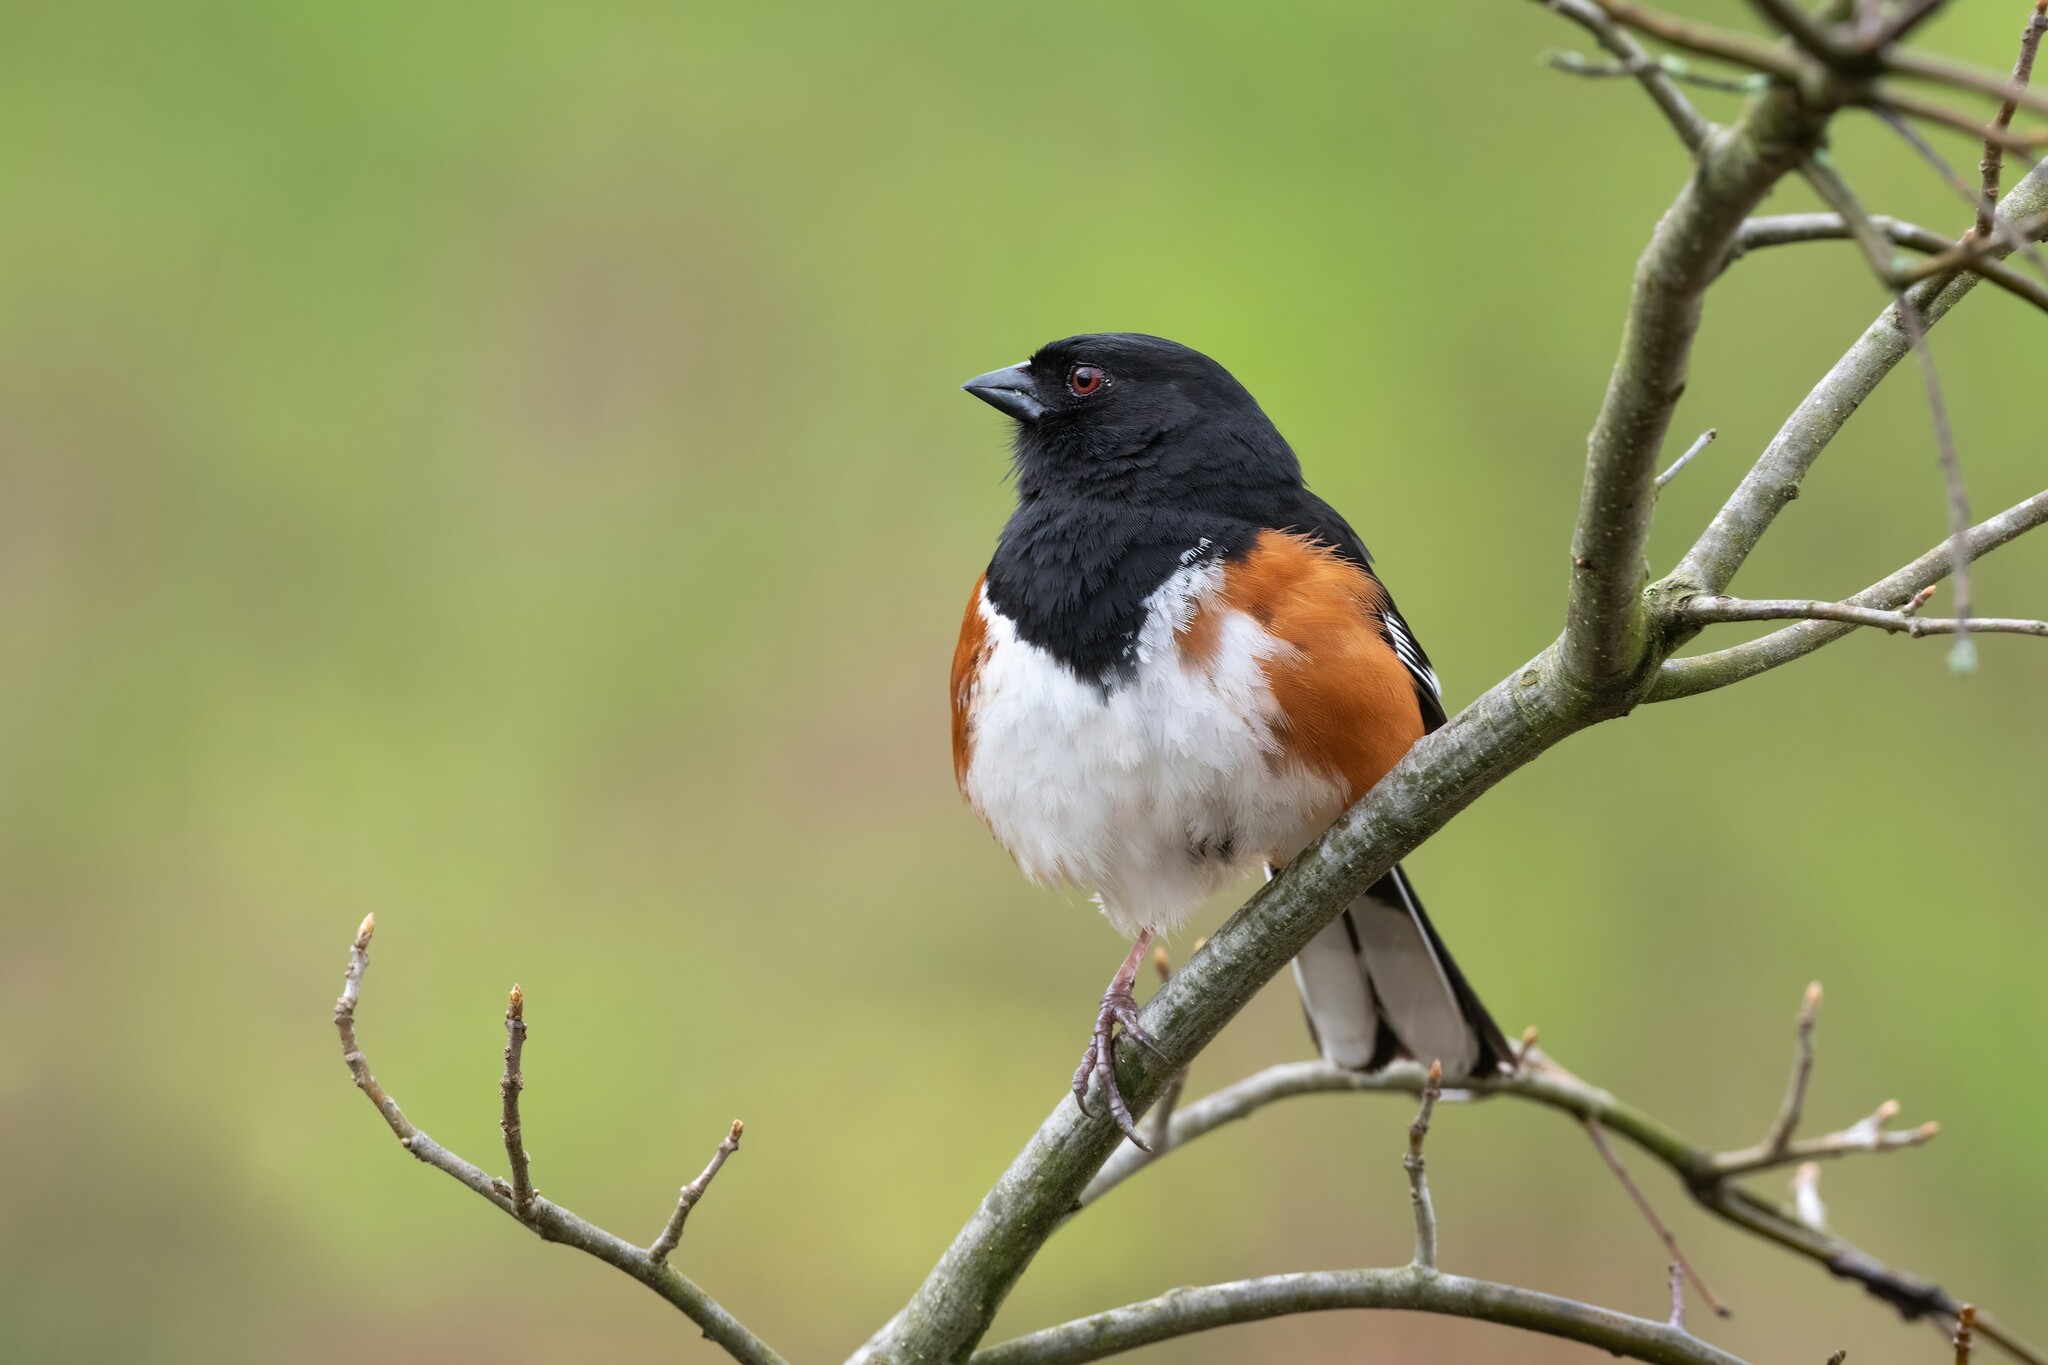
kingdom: Animalia
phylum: Chordata
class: Aves
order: Passeriformes
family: Passerellidae
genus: Pipilo
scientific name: Pipilo erythrophthalmus
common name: Eastern towhee
